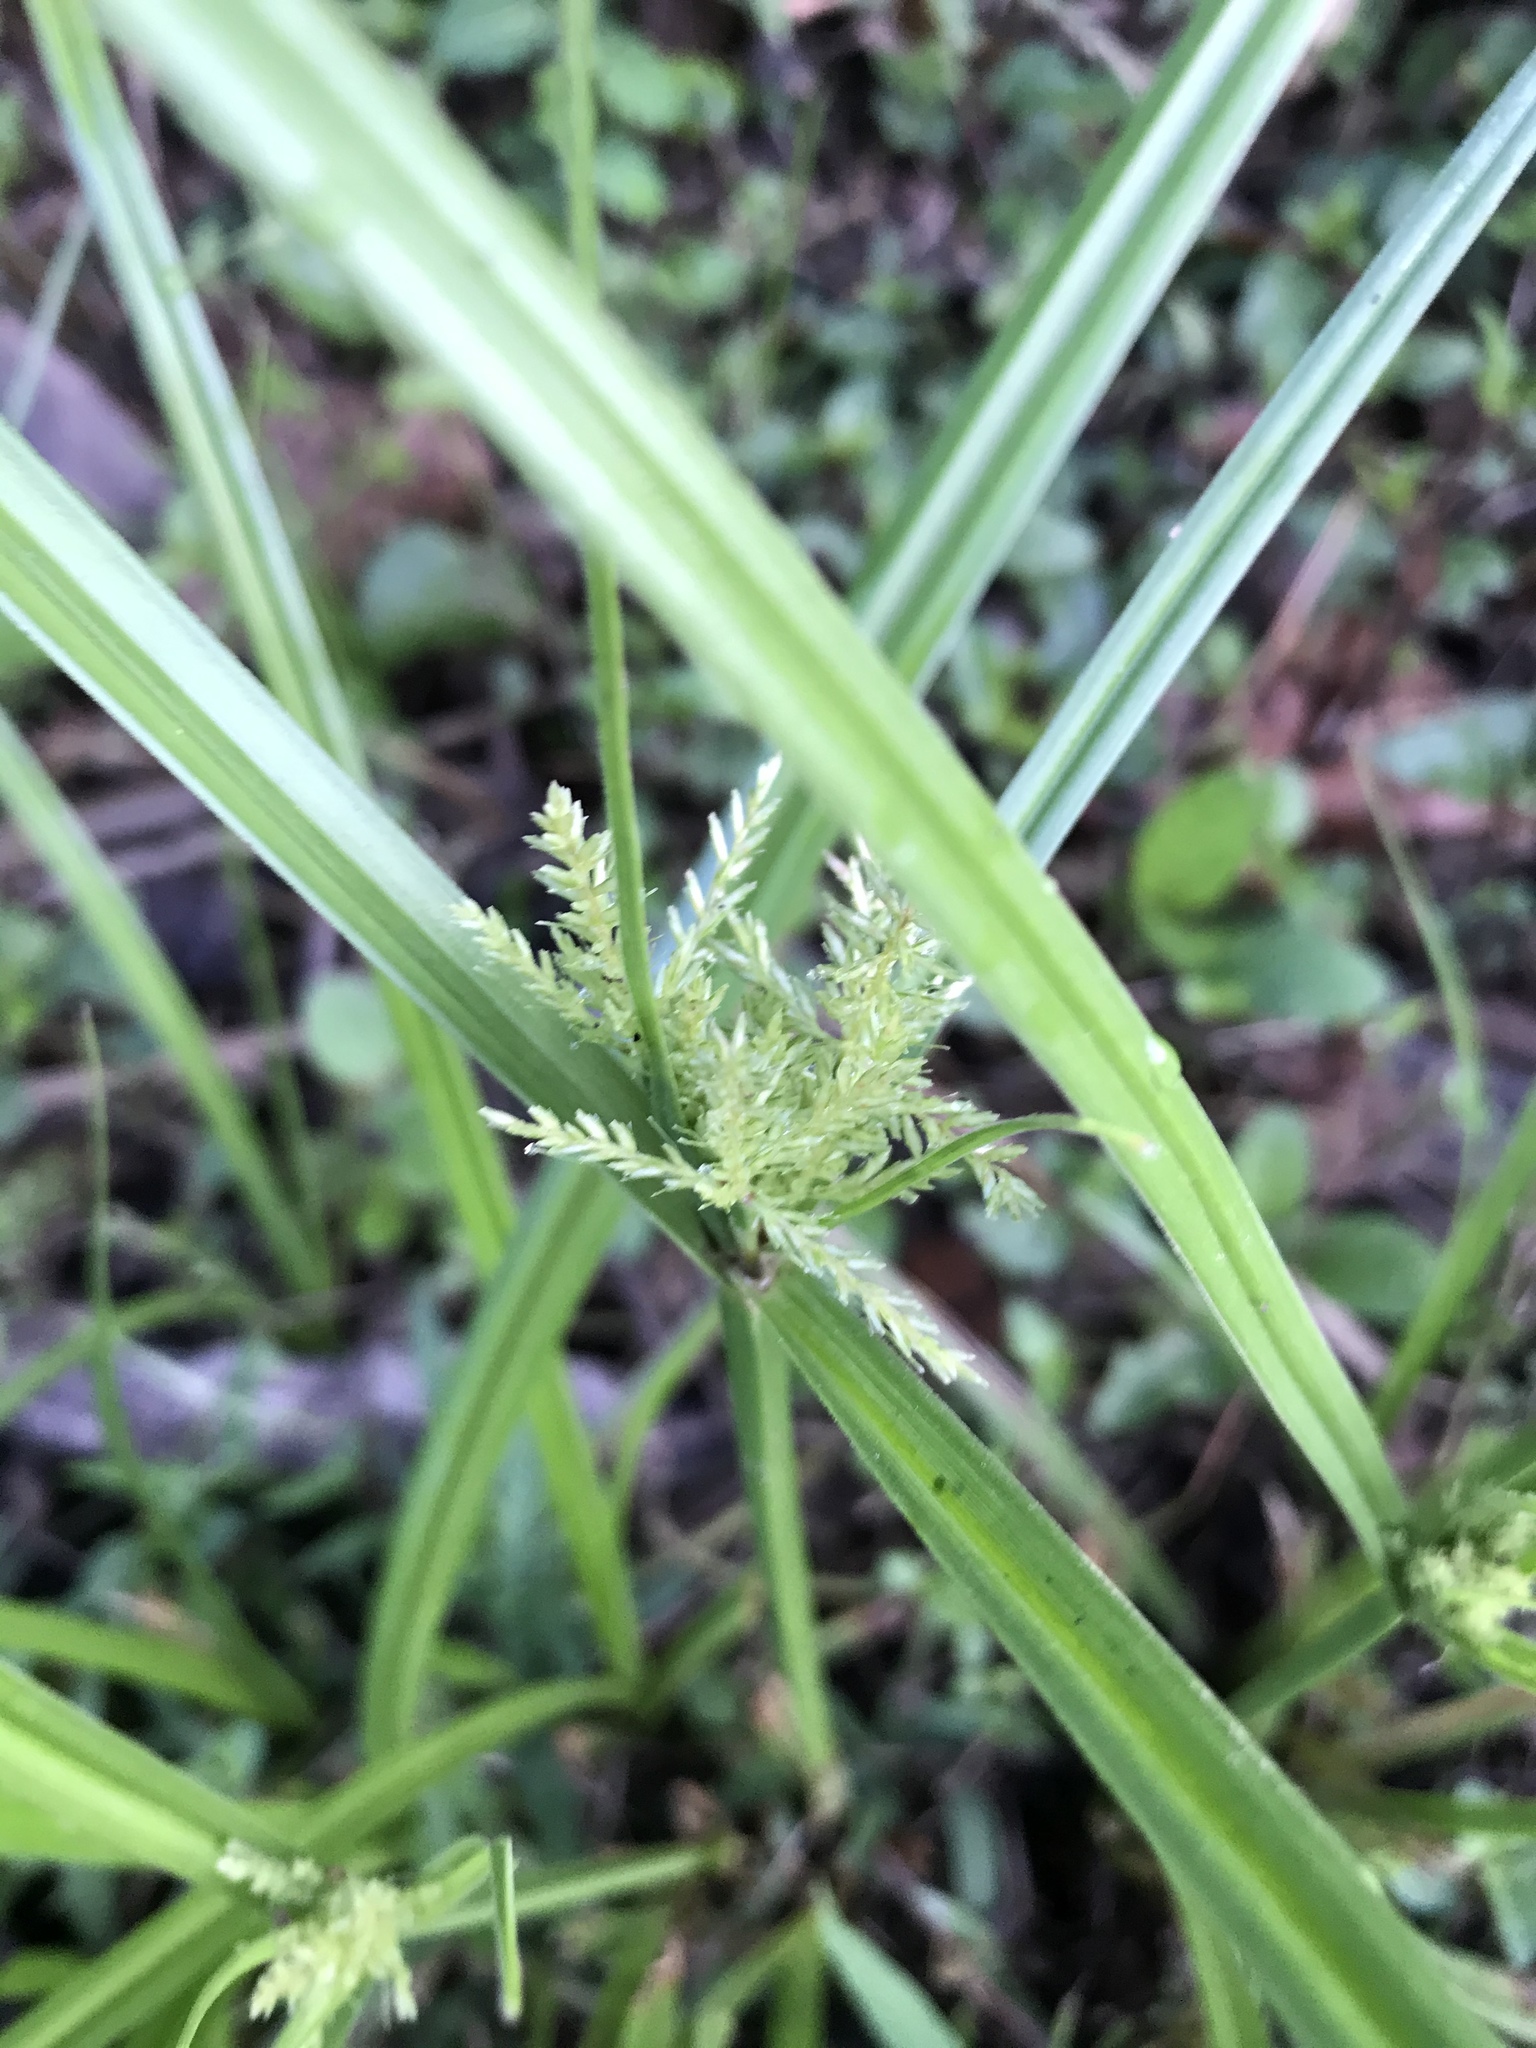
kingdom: Plantae
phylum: Tracheophyta
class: Liliopsida
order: Poales
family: Cyperaceae
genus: Cyperus
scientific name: Cyperus odoratus
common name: Fragrant flatsedge
